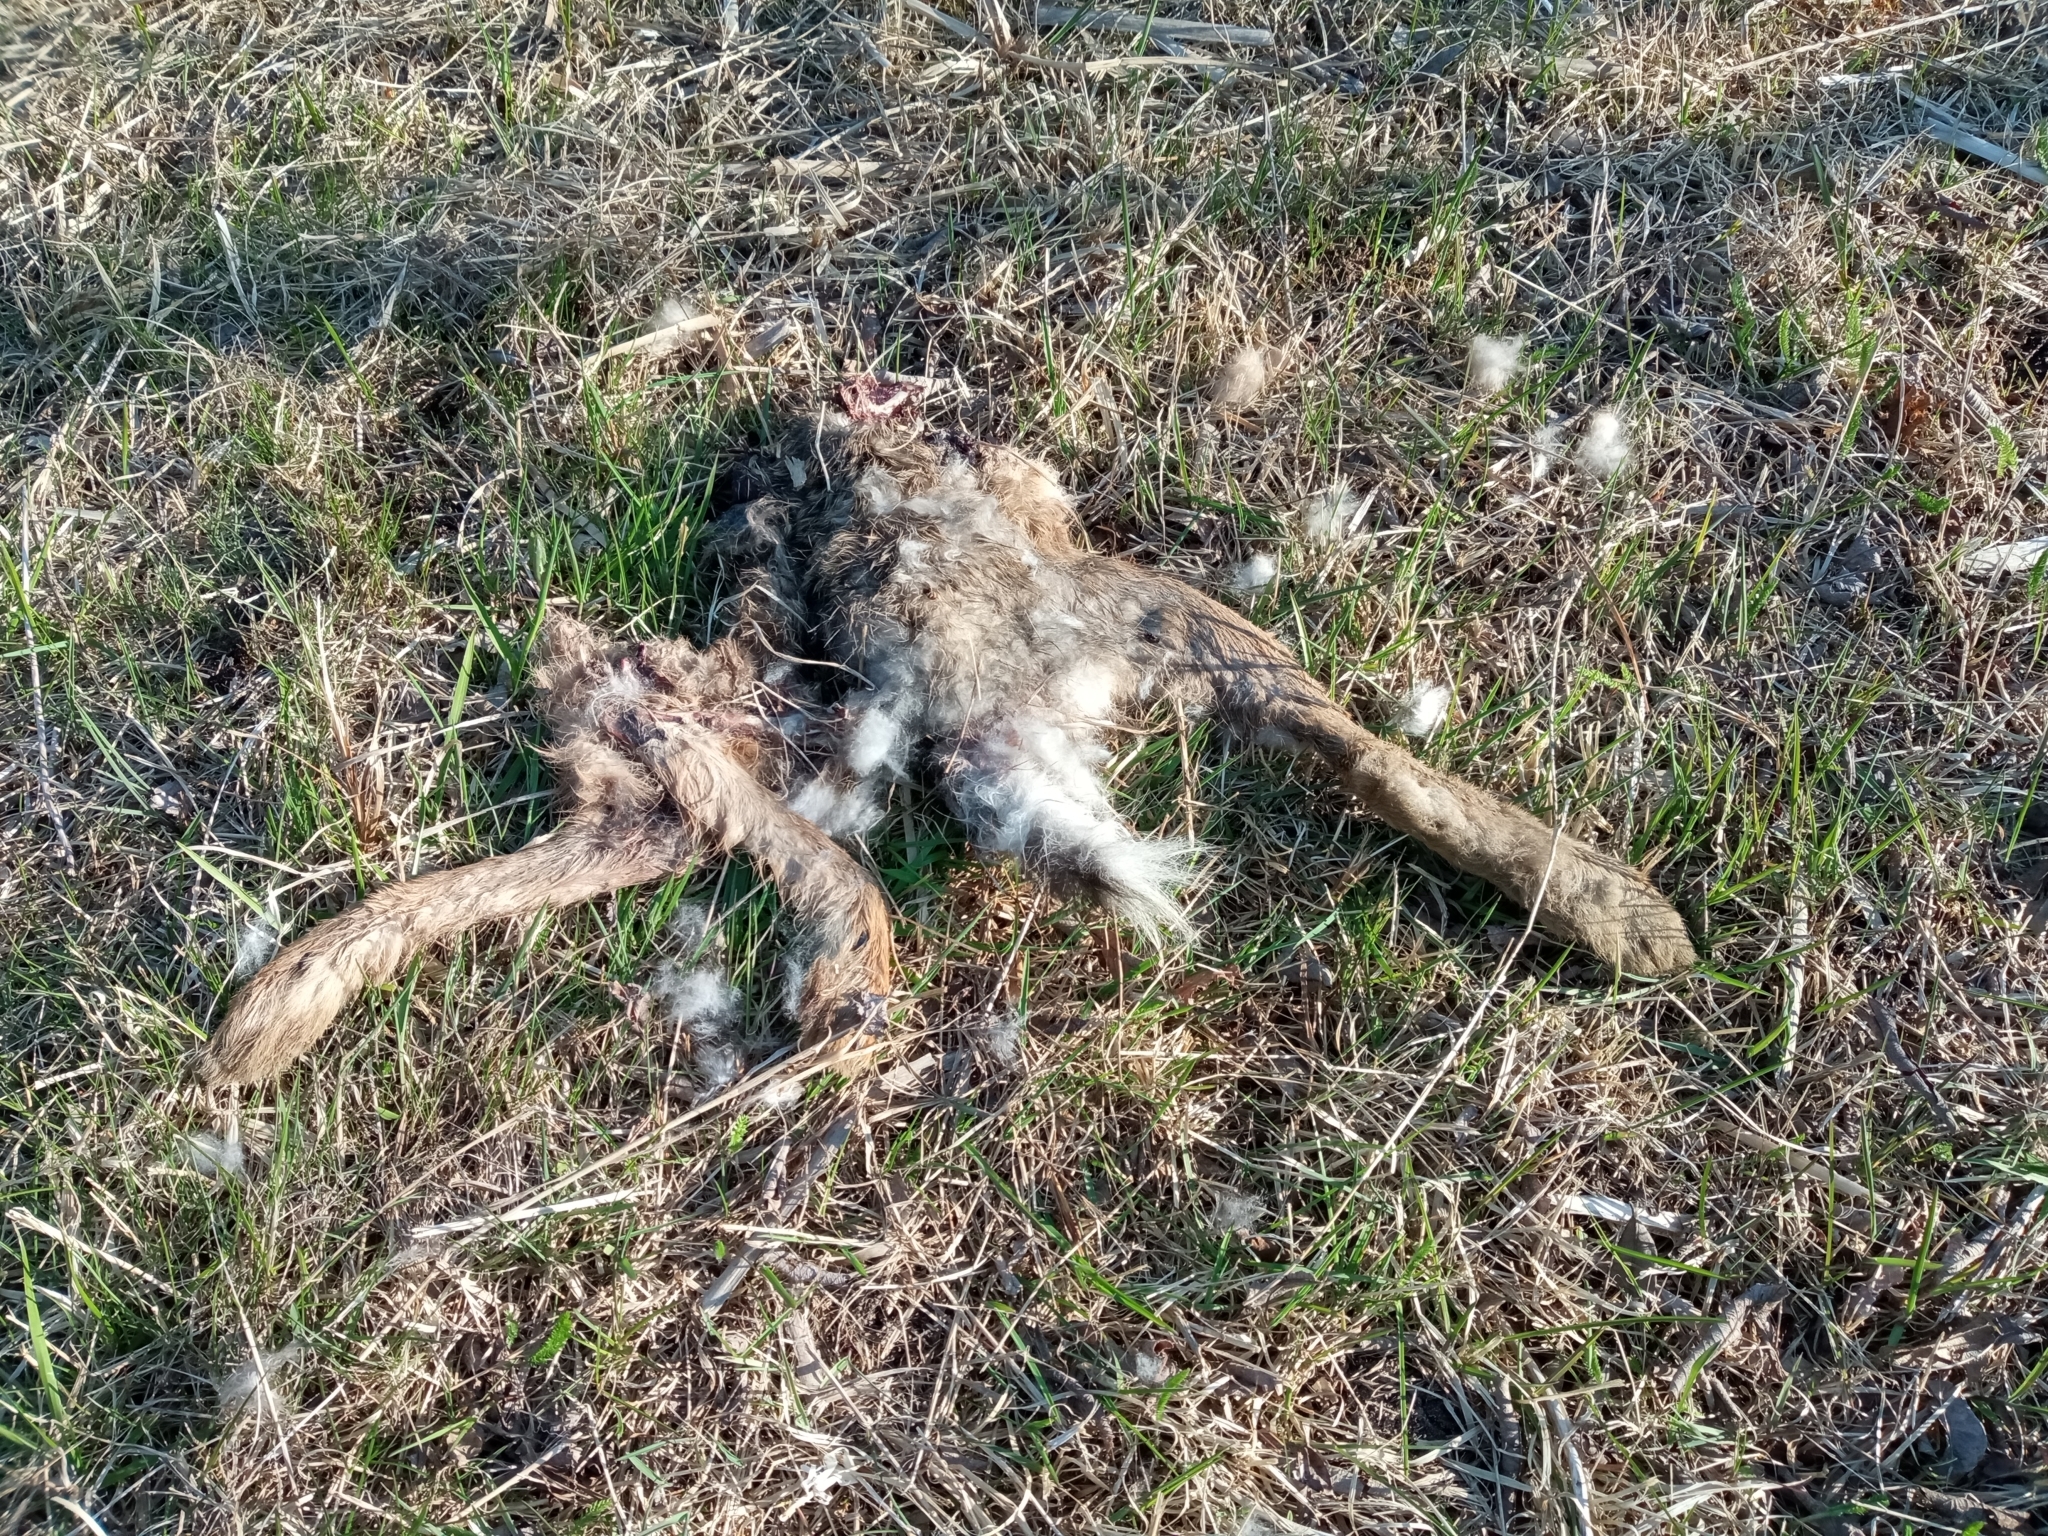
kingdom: Animalia
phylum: Chordata
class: Mammalia
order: Lagomorpha
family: Leporidae
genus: Lepus
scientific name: Lepus europaeus
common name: European hare
